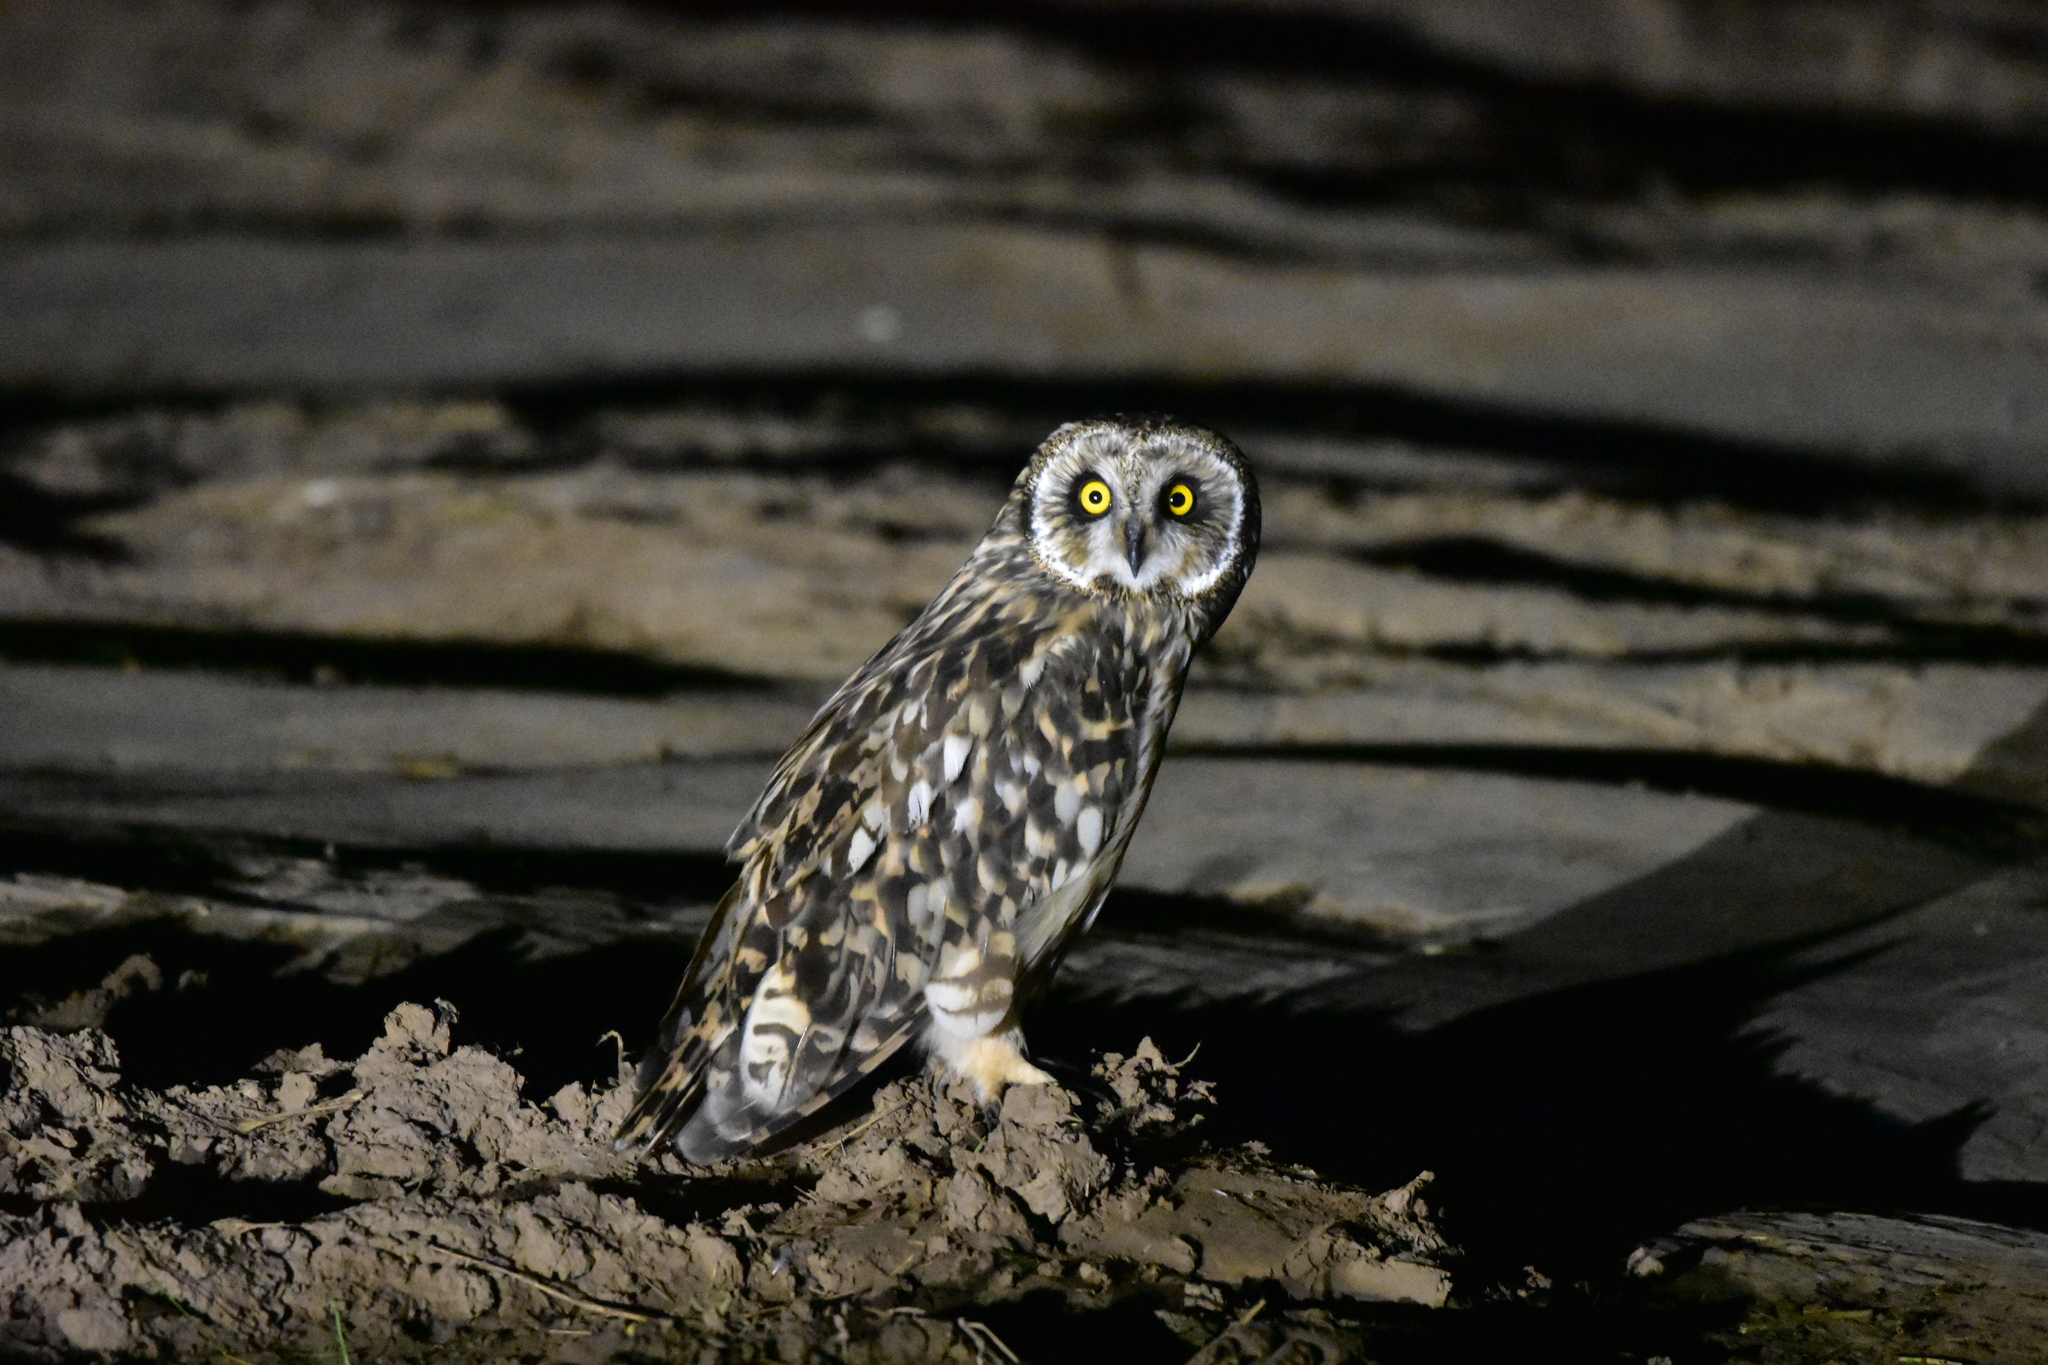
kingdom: Animalia
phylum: Chordata
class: Aves
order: Strigiformes
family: Strigidae
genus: Asio
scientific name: Asio flammeus
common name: Short-eared owl
